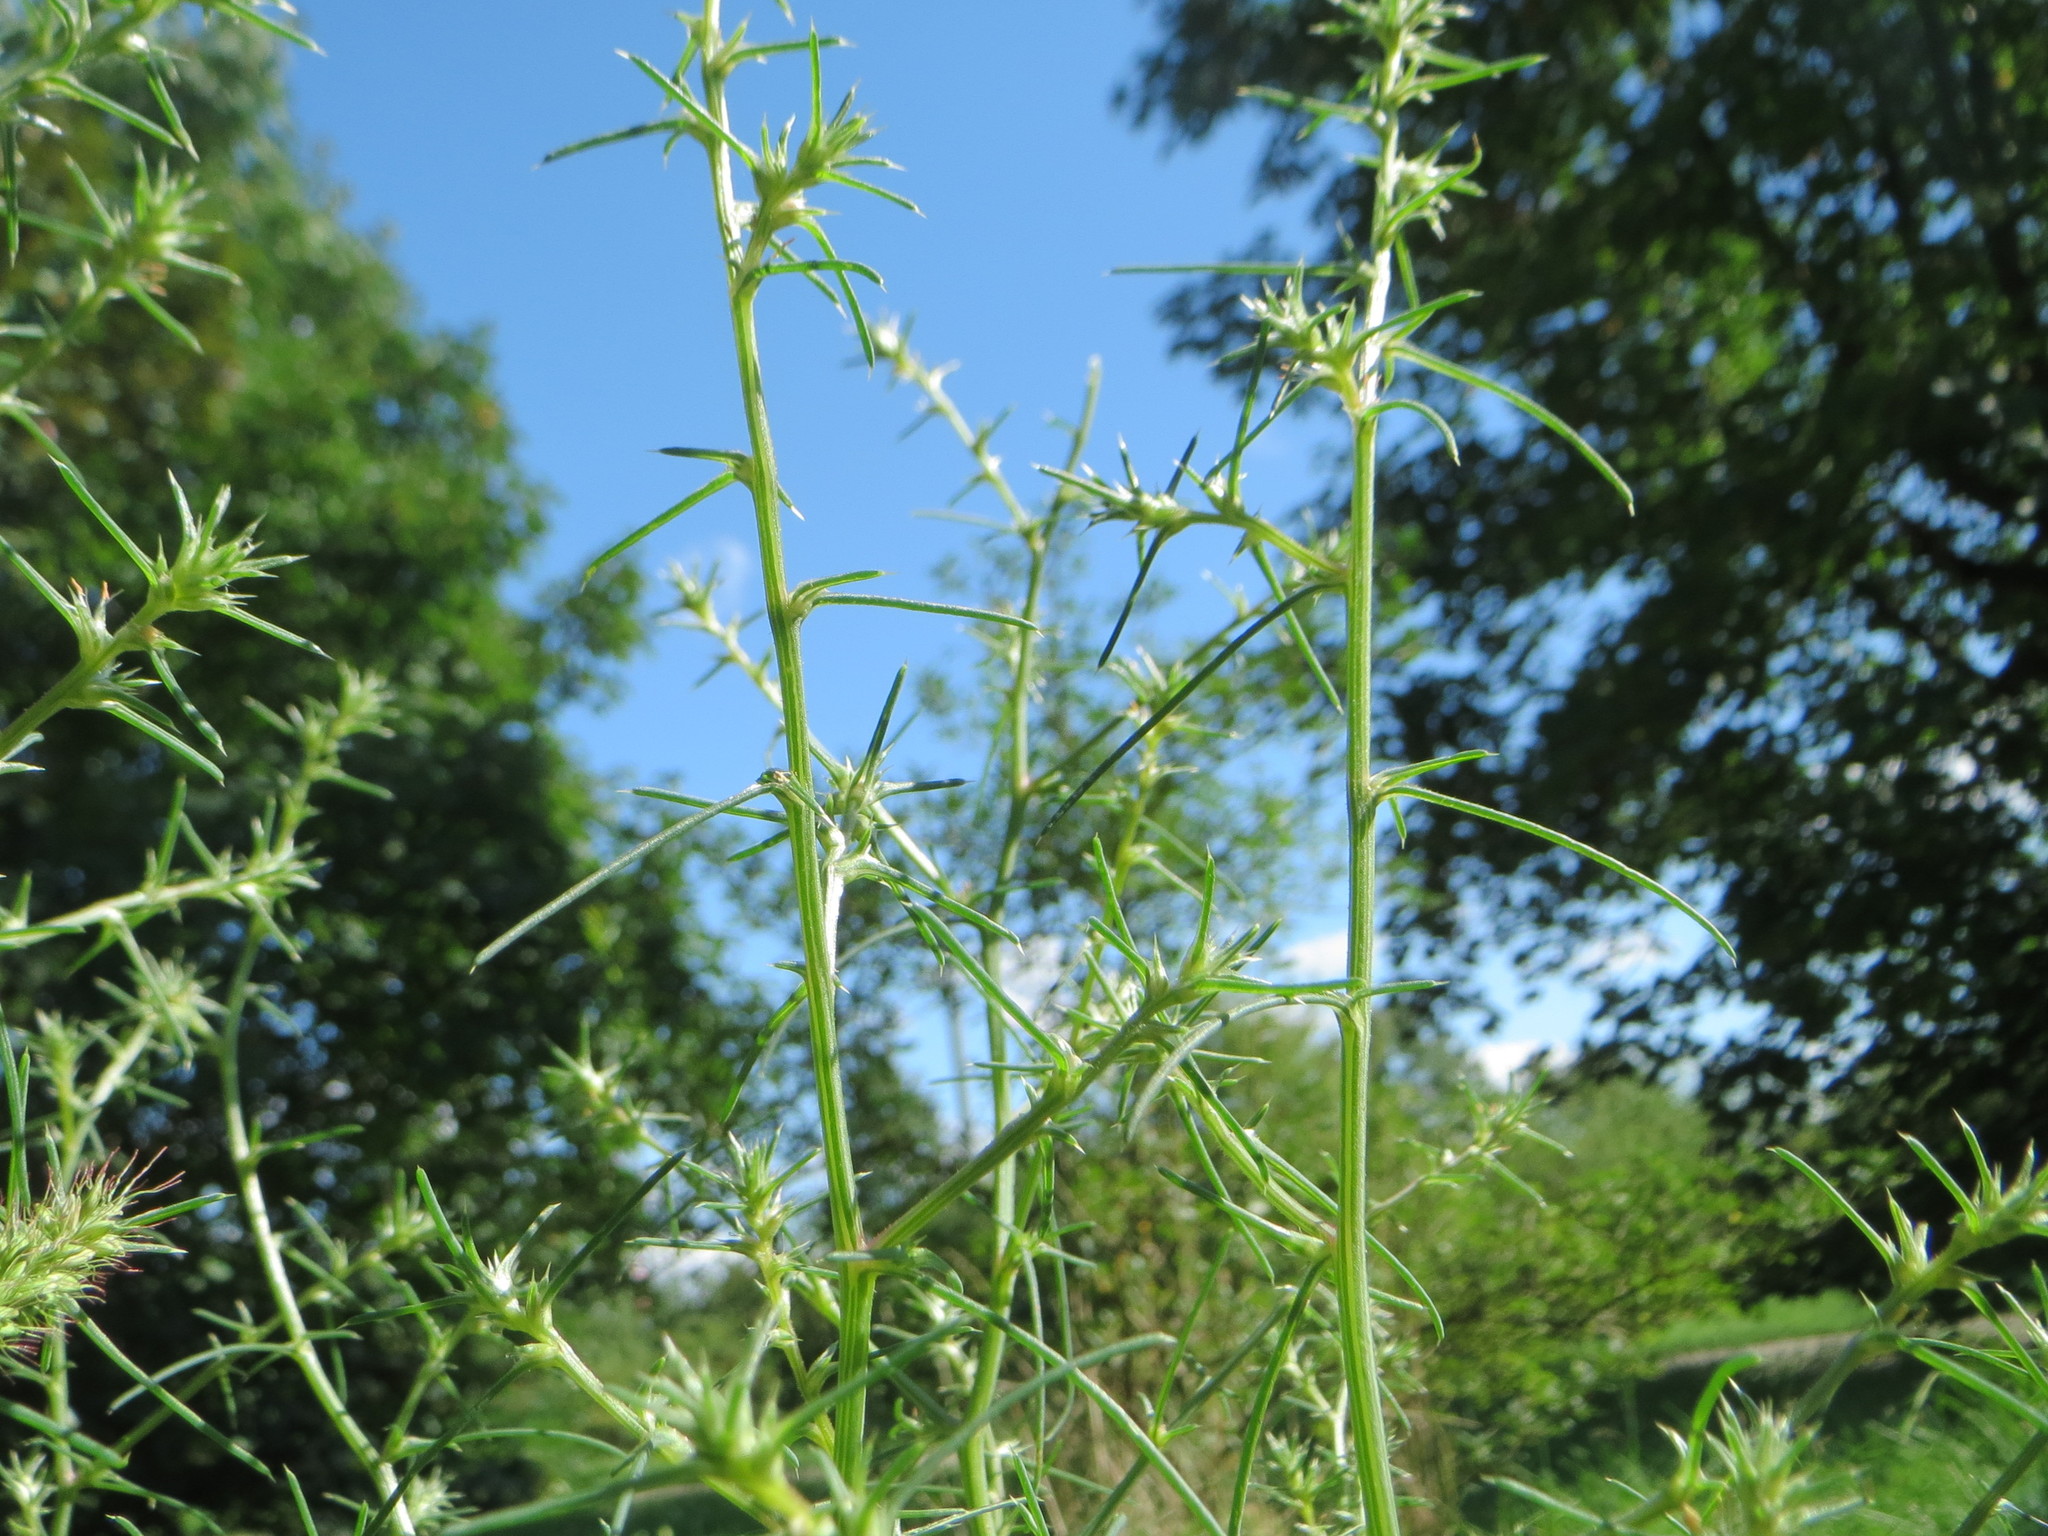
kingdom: Plantae
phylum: Tracheophyta
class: Magnoliopsida
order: Caryophyllales
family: Amaranthaceae
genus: Salsola
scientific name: Salsola tragus
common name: Prickly russian thistle
